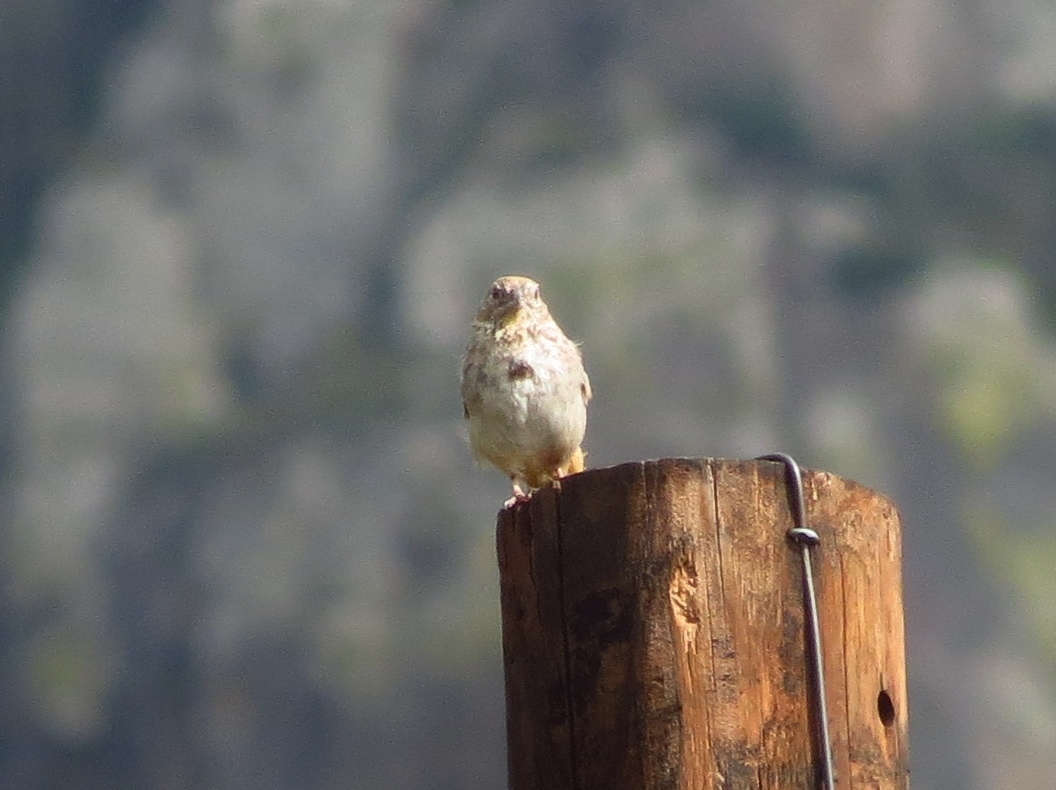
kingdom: Animalia
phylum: Chordata
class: Aves
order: Passeriformes
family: Passerellidae
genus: Melozone
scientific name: Melozone fusca
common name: Canyon towhee
